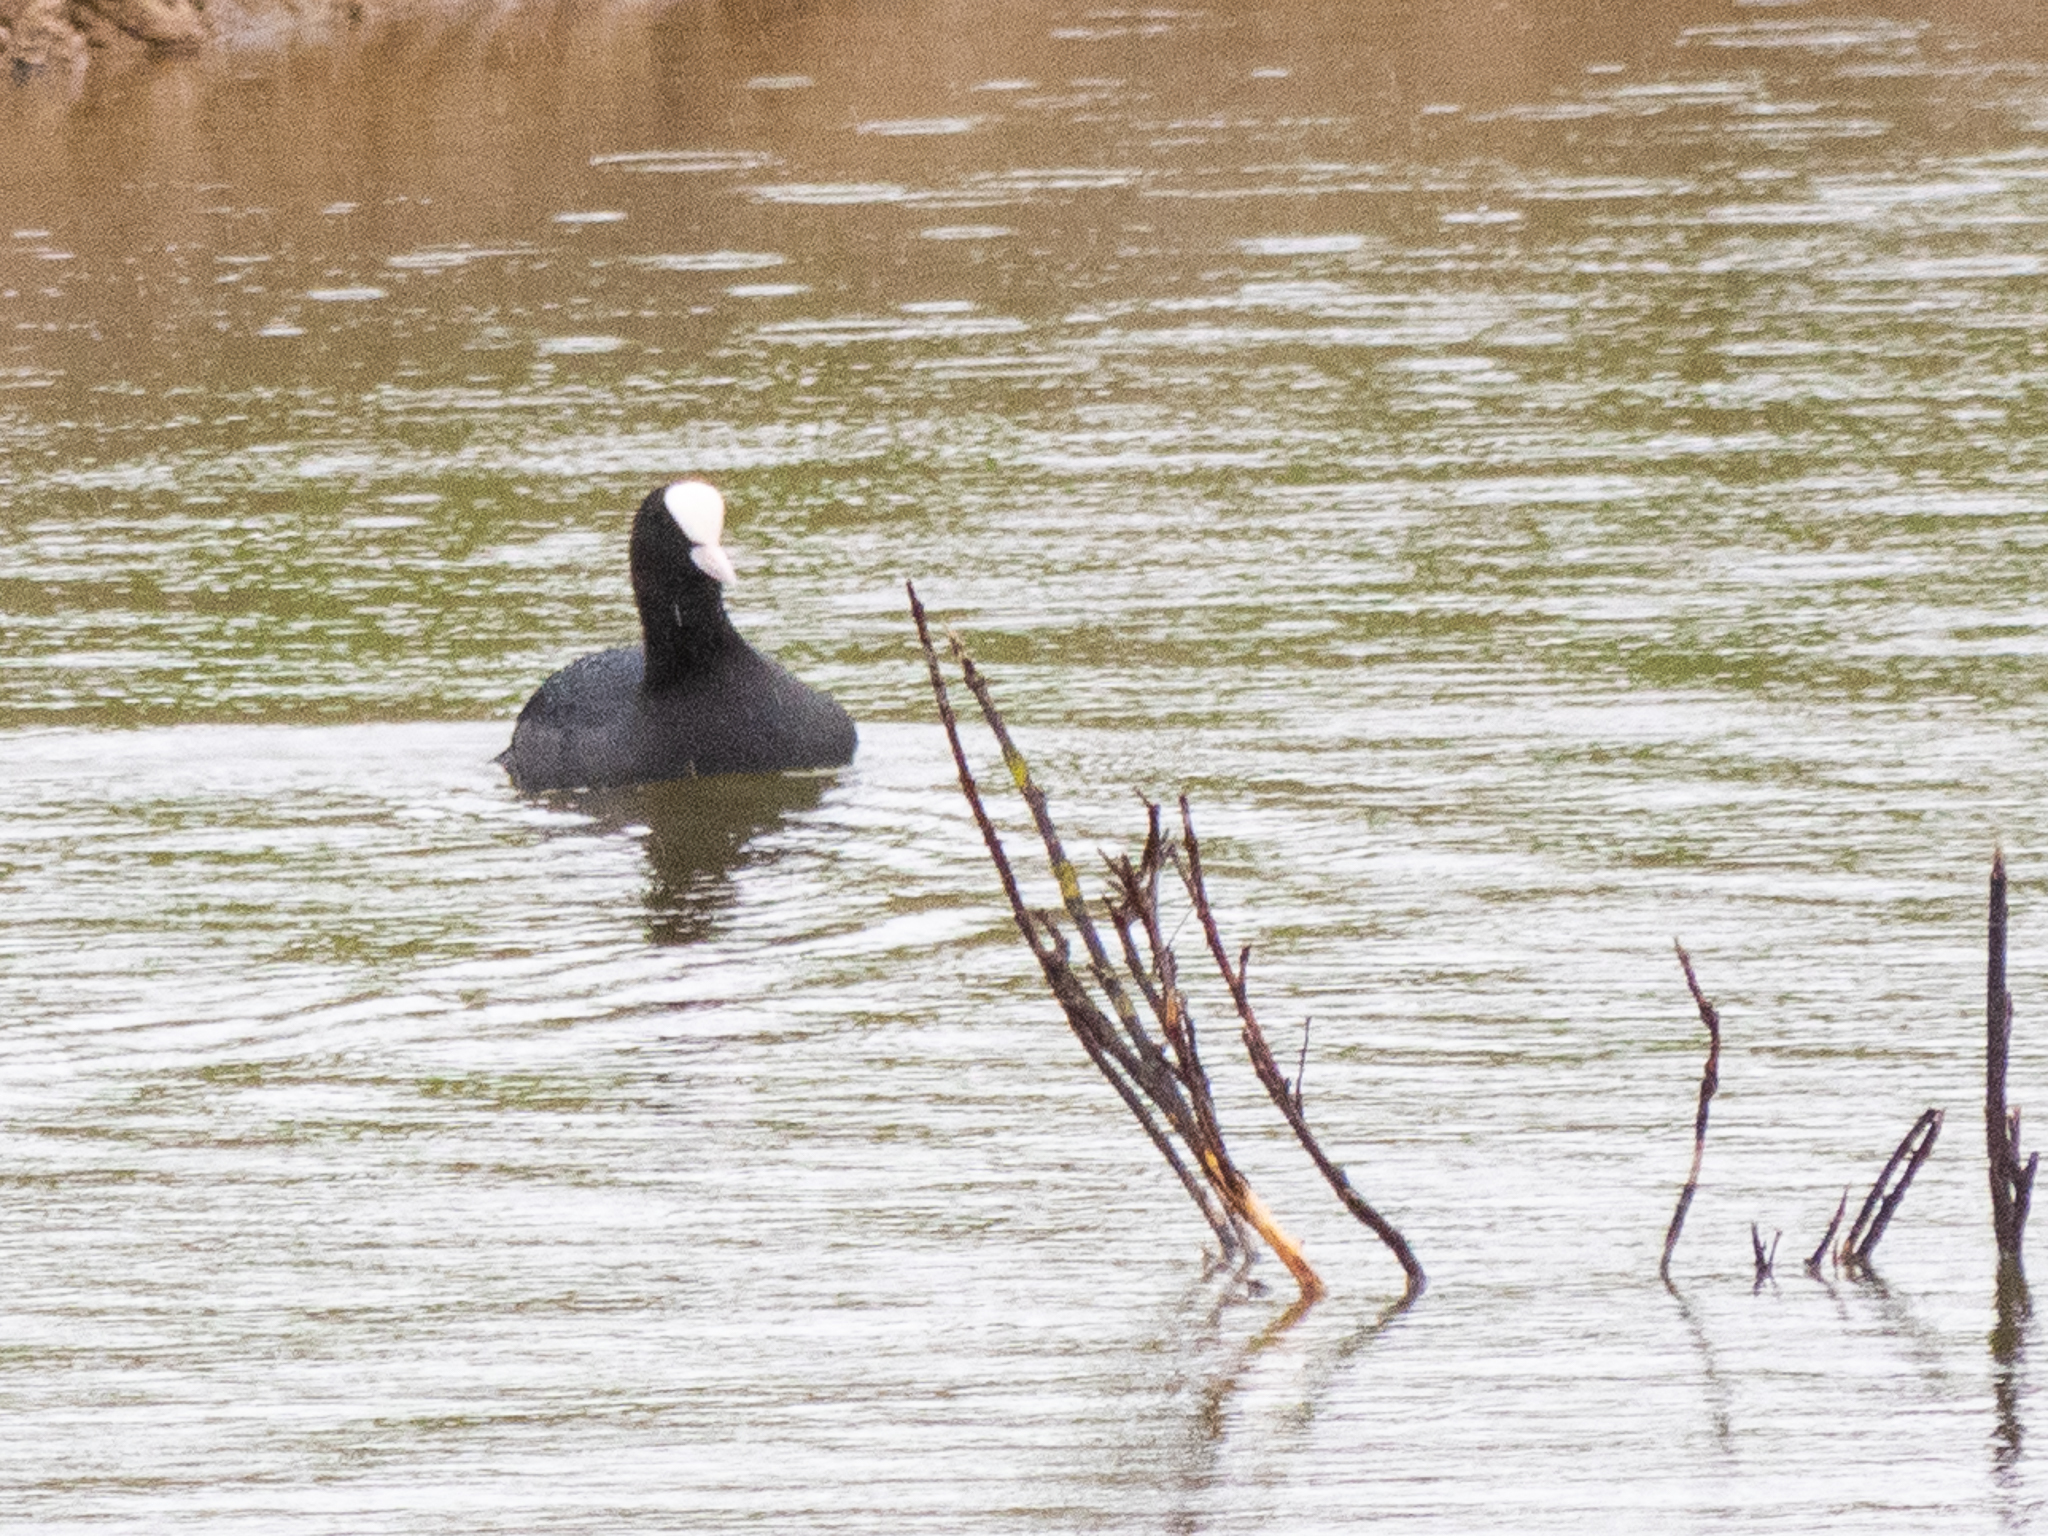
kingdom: Animalia
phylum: Chordata
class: Aves
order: Gruiformes
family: Rallidae
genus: Fulica
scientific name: Fulica atra
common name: Eurasian coot
